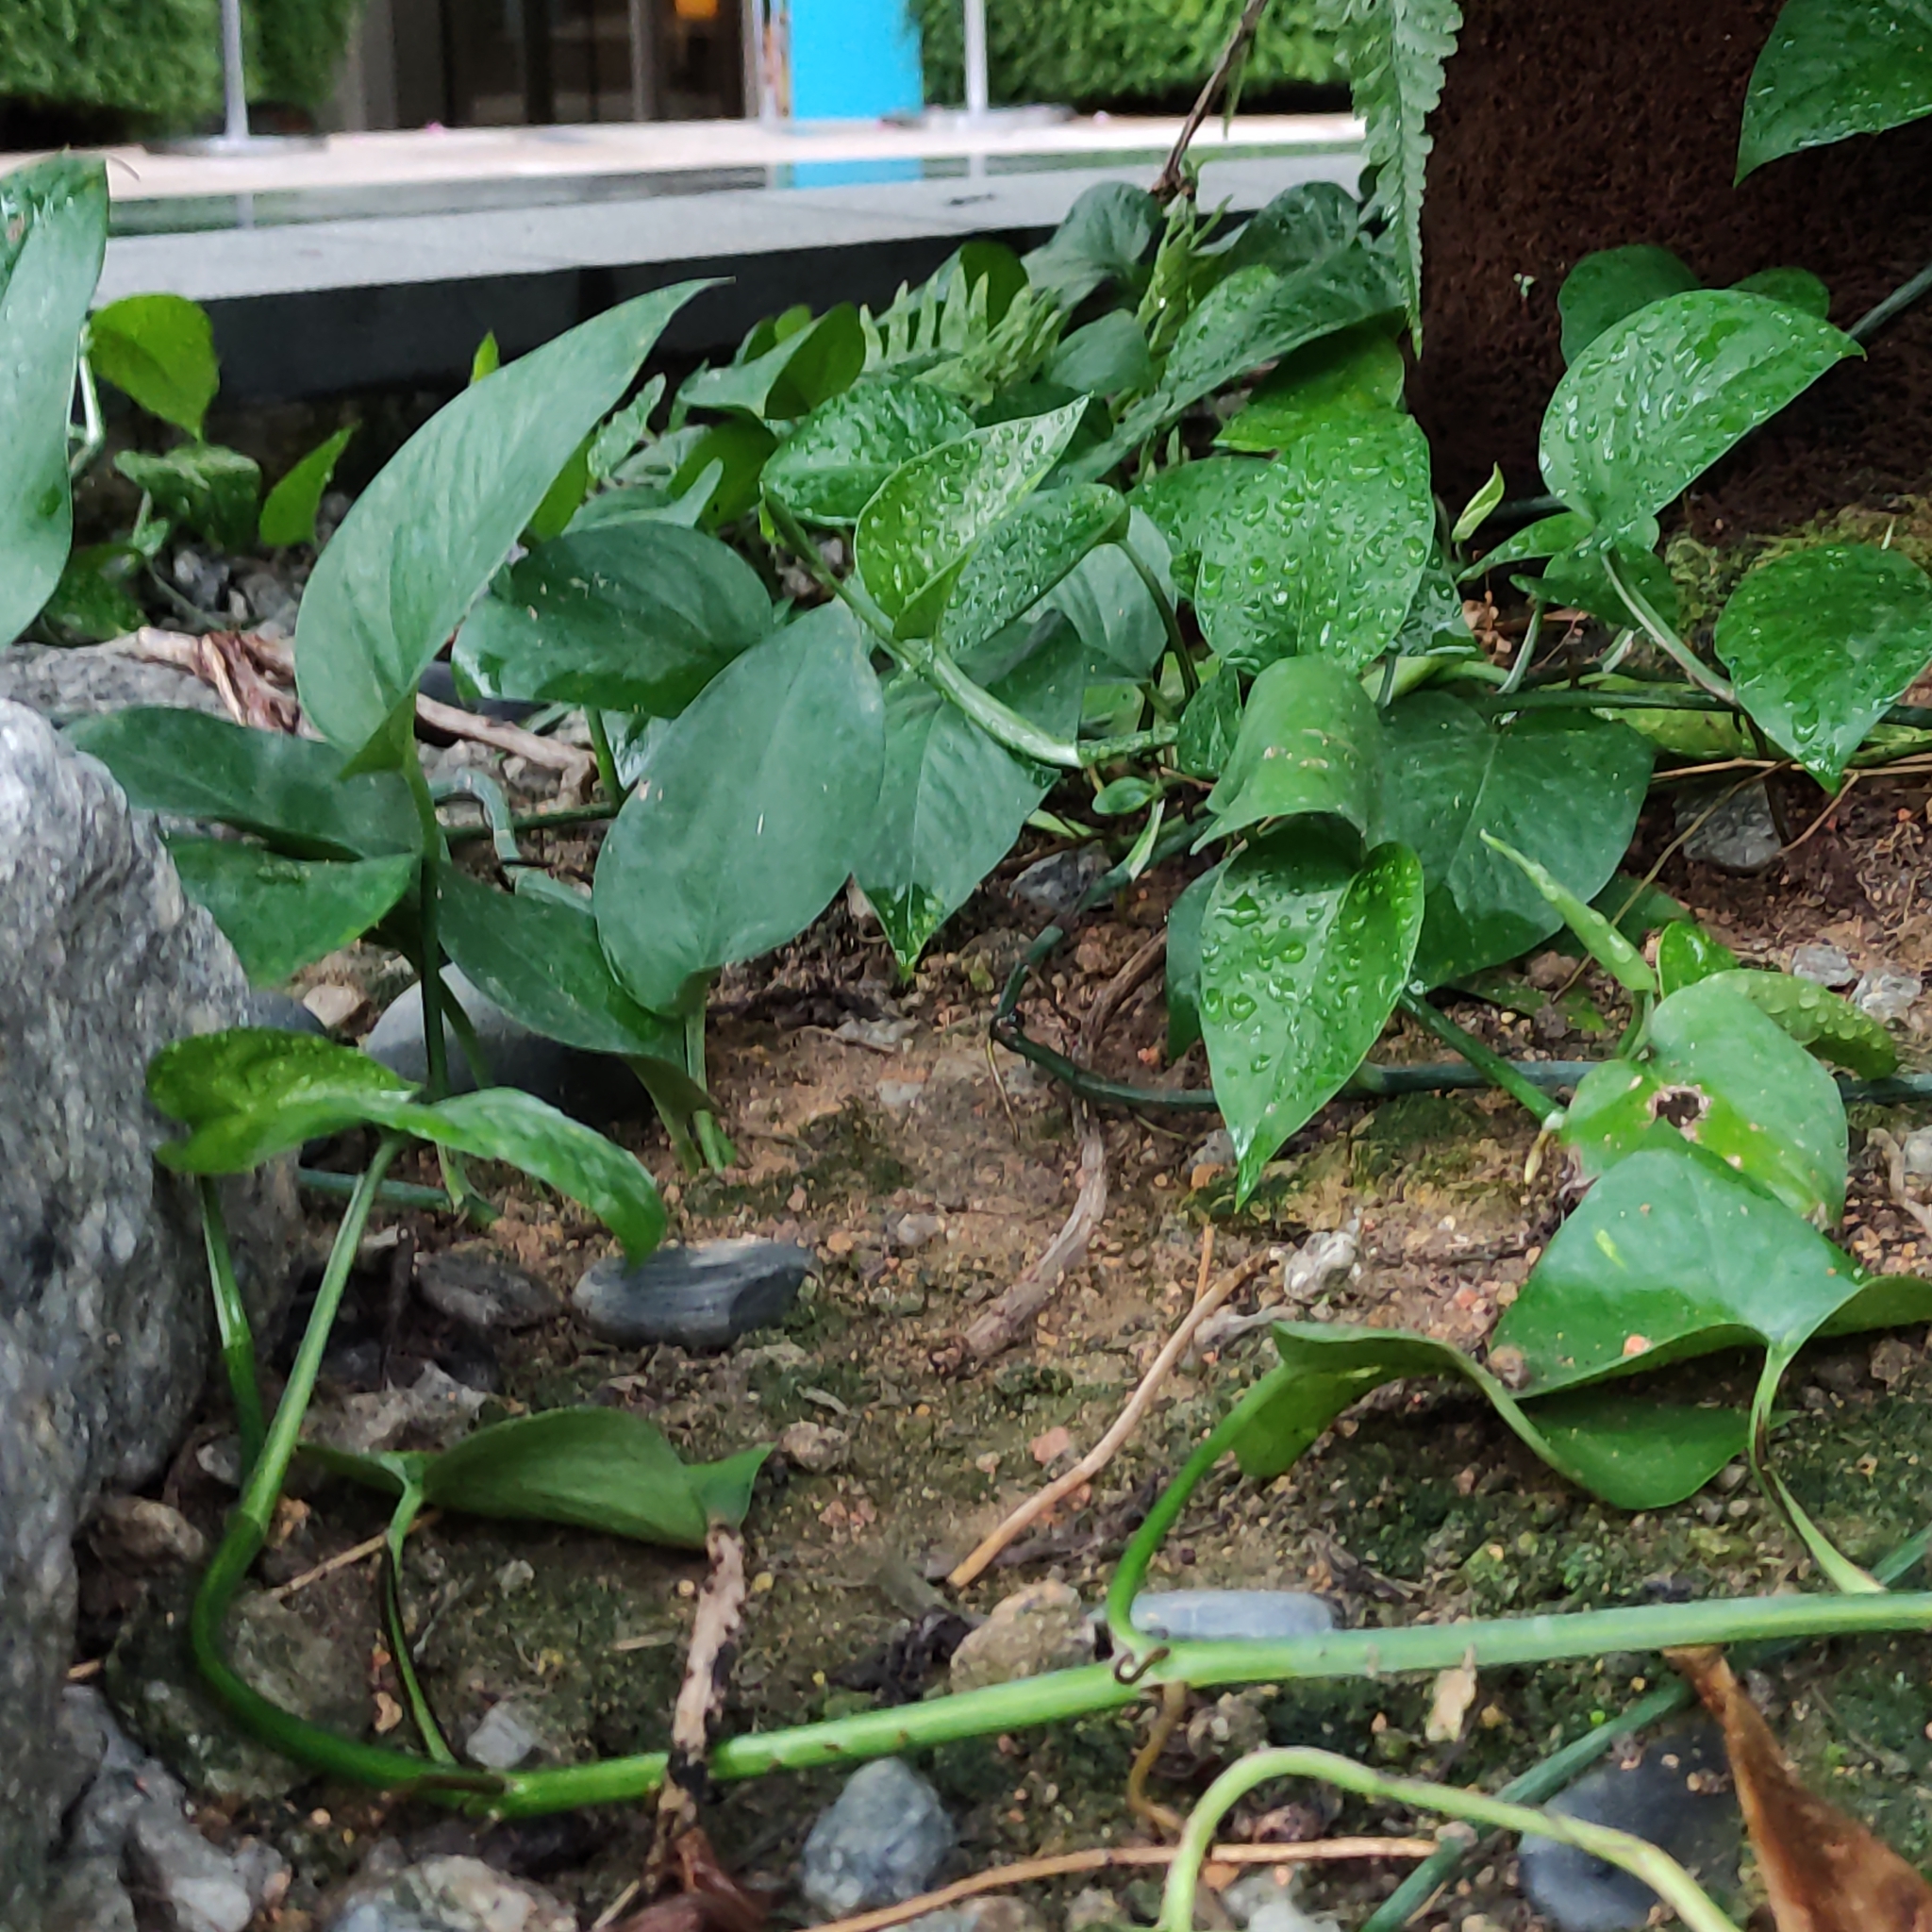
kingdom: Plantae
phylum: Tracheophyta
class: Liliopsida
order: Alismatales
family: Araceae
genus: Epipremnum
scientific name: Epipremnum aureum
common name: Golden hunter's-robe
